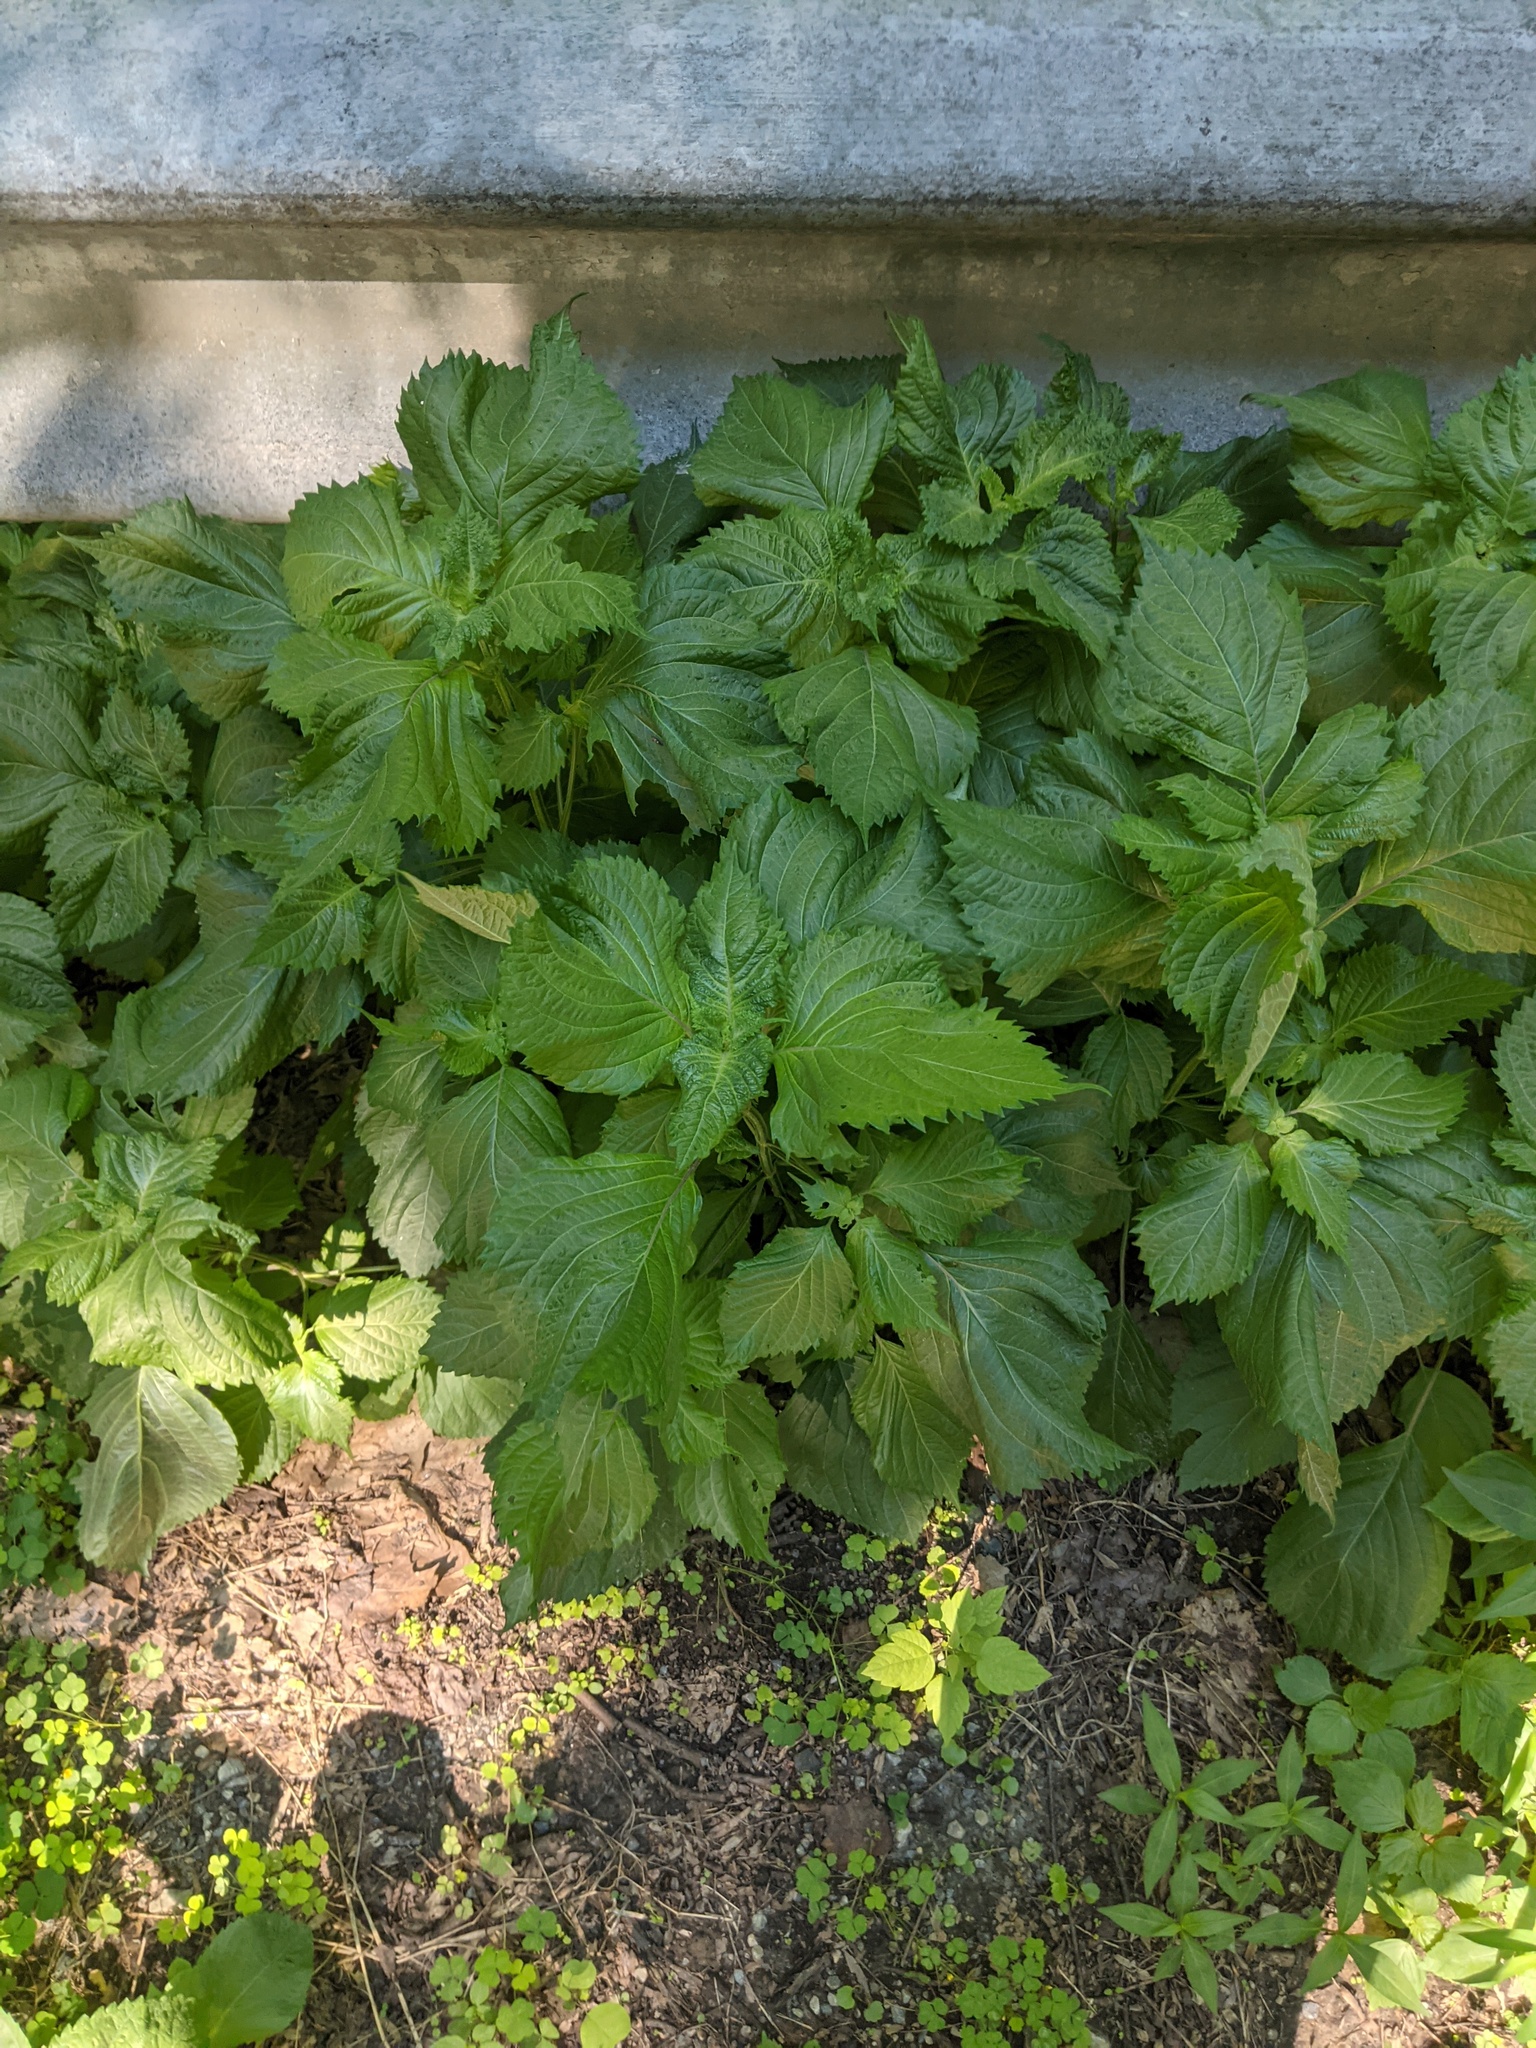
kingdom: Plantae
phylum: Tracheophyta
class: Magnoliopsida
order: Lamiales
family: Lamiaceae
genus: Perilla
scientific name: Perilla frutescens
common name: Perilla
